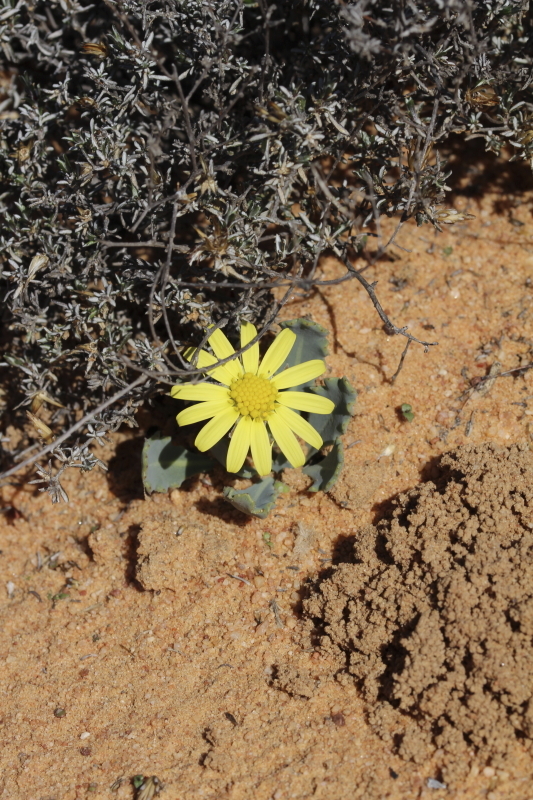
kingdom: Plantae
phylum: Tracheophyta
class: Magnoliopsida
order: Asterales
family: Asteraceae
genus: Othonna
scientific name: Othonna auriculifolia
